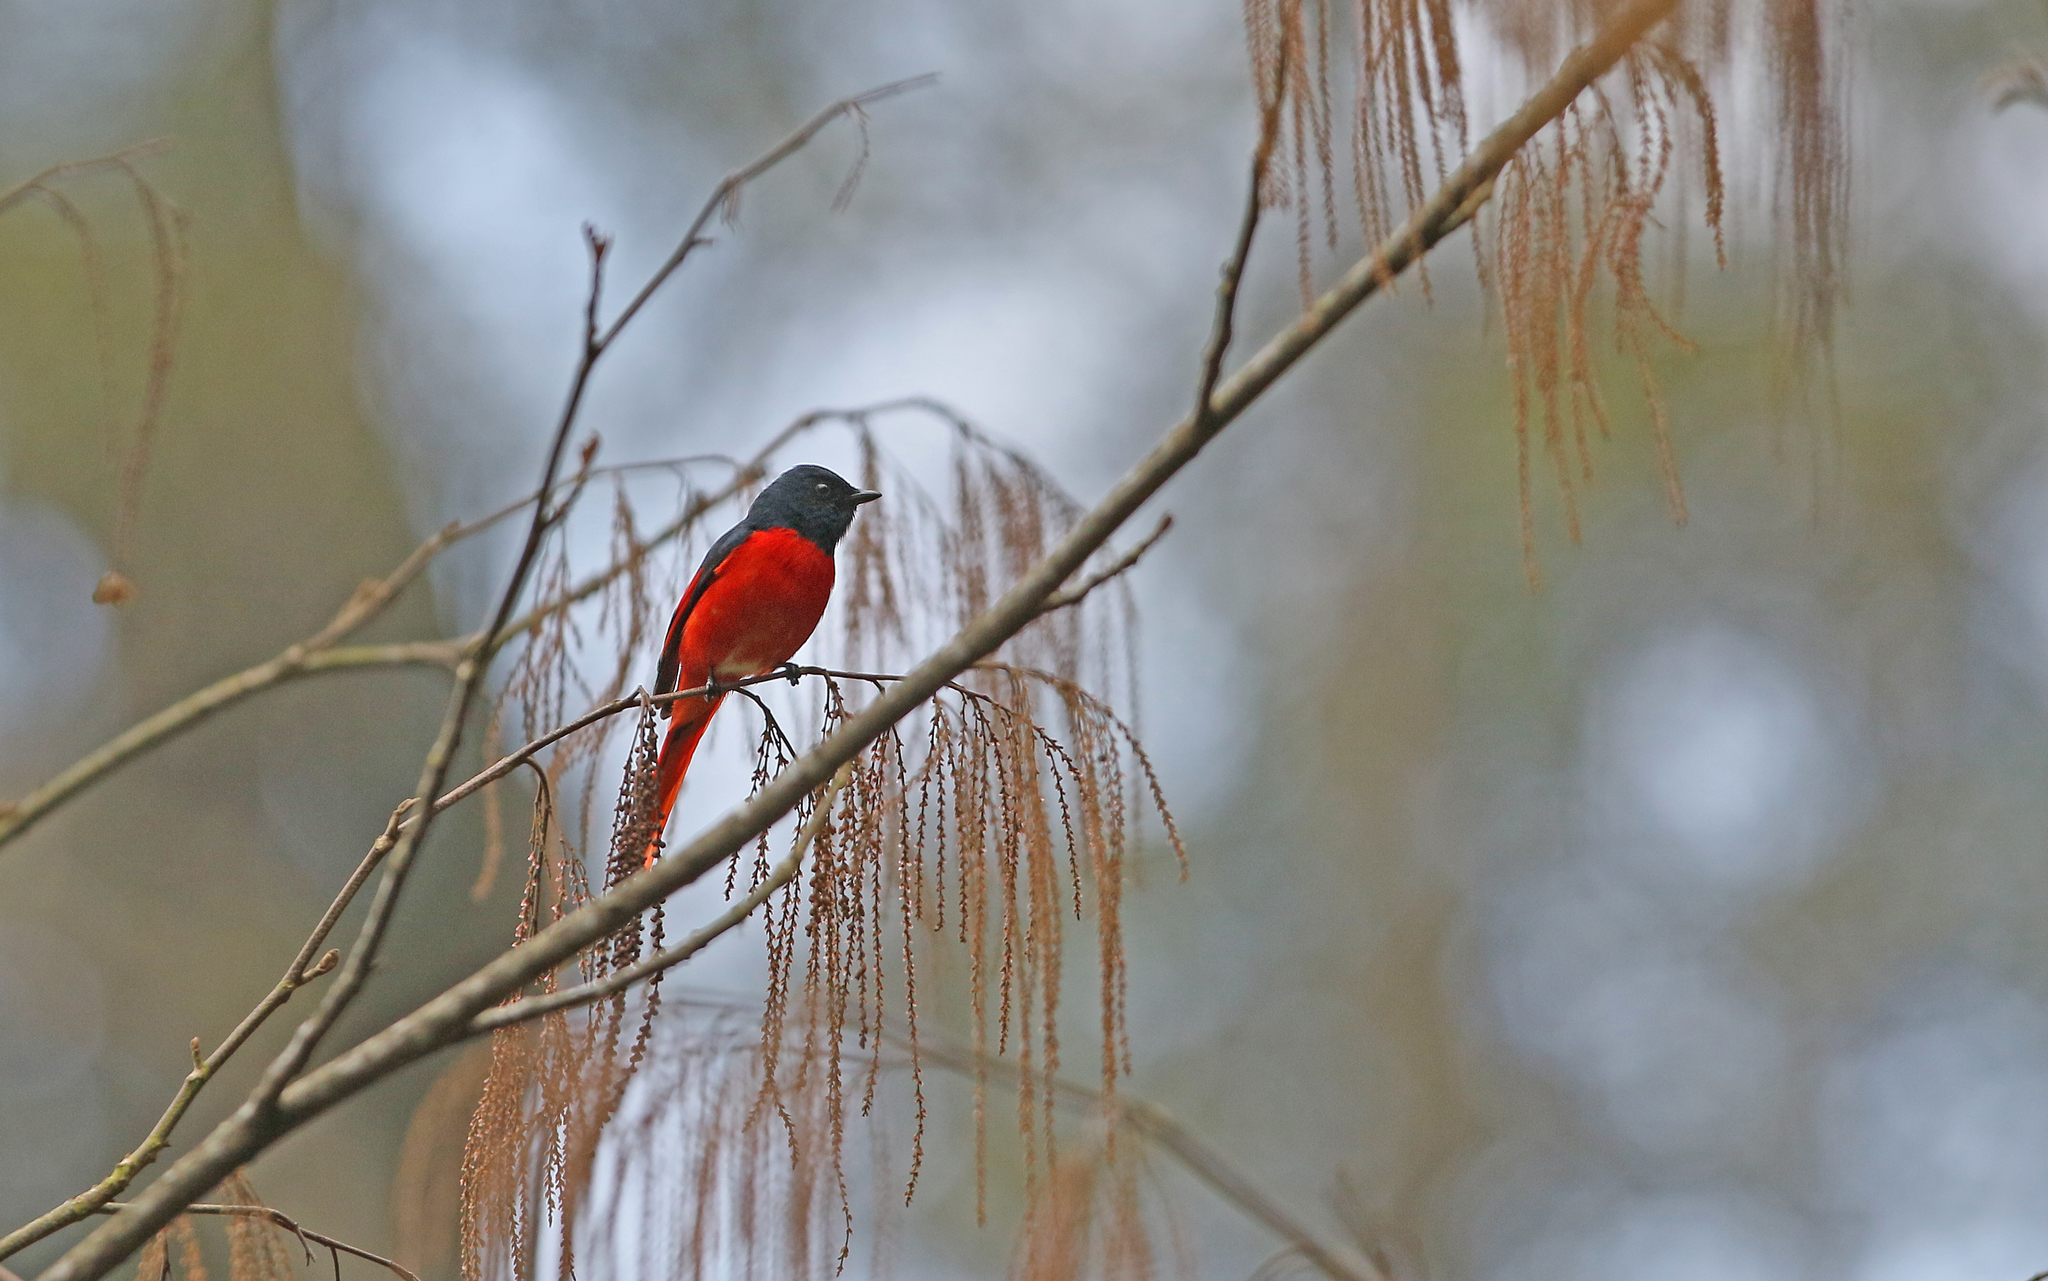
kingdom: Animalia
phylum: Chordata
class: Aves
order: Passeriformes
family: Campephagidae
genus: Pericrocotus
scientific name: Pericrocotus brevirostris
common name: Short-billed minivet
